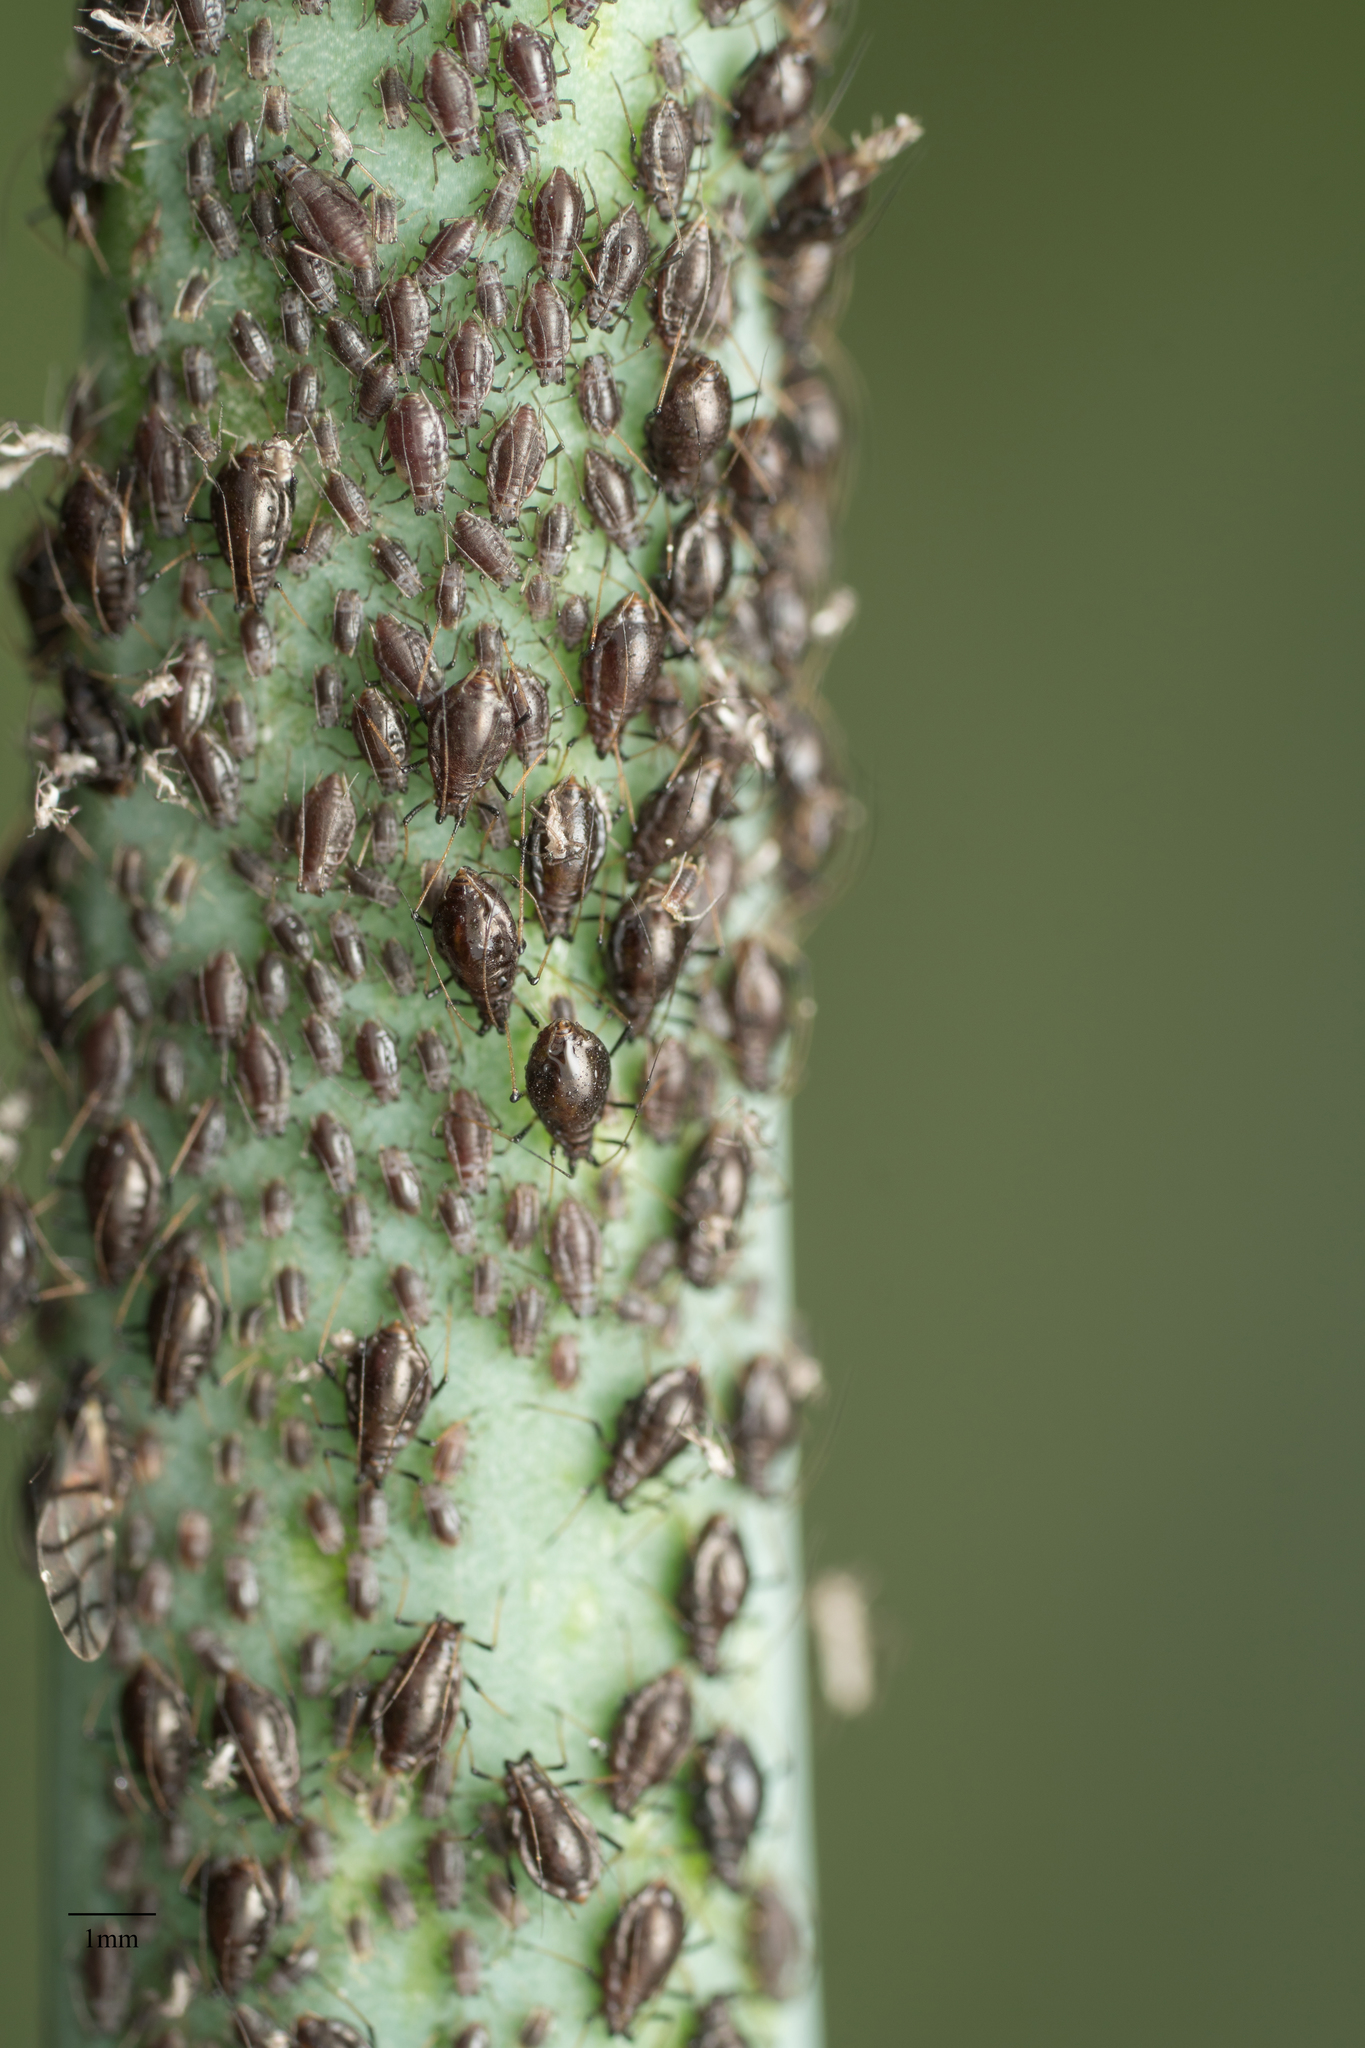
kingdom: Animalia
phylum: Arthropoda
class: Insecta
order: Hemiptera
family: Aphididae
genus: Neotoxoptera
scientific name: Neotoxoptera formosana
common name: Onion aphid
